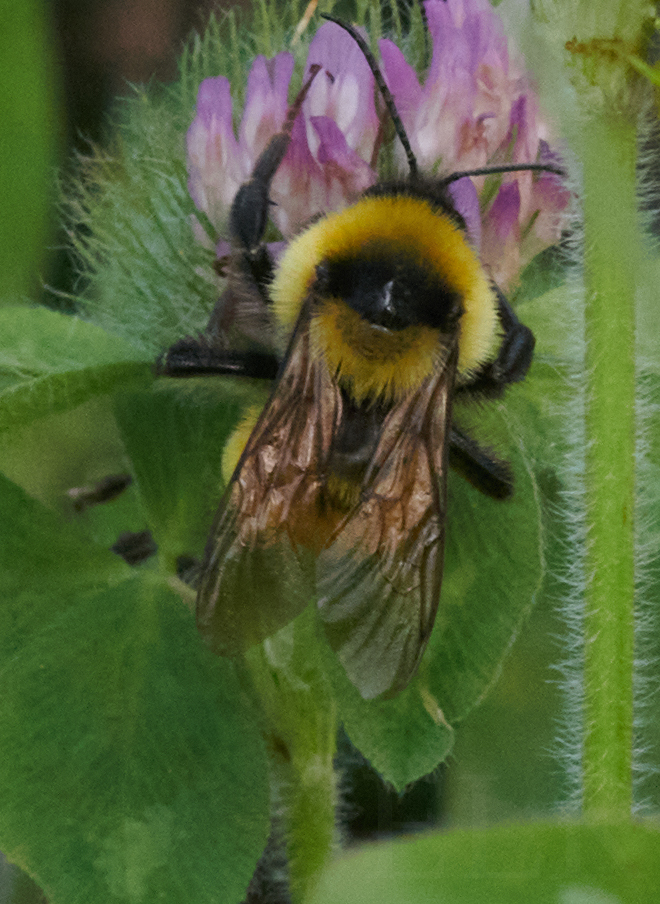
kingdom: Animalia
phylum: Arthropoda
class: Insecta
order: Hymenoptera
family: Apidae
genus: Bombus
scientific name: Bombus fervidus
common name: Yellow bumble bee
